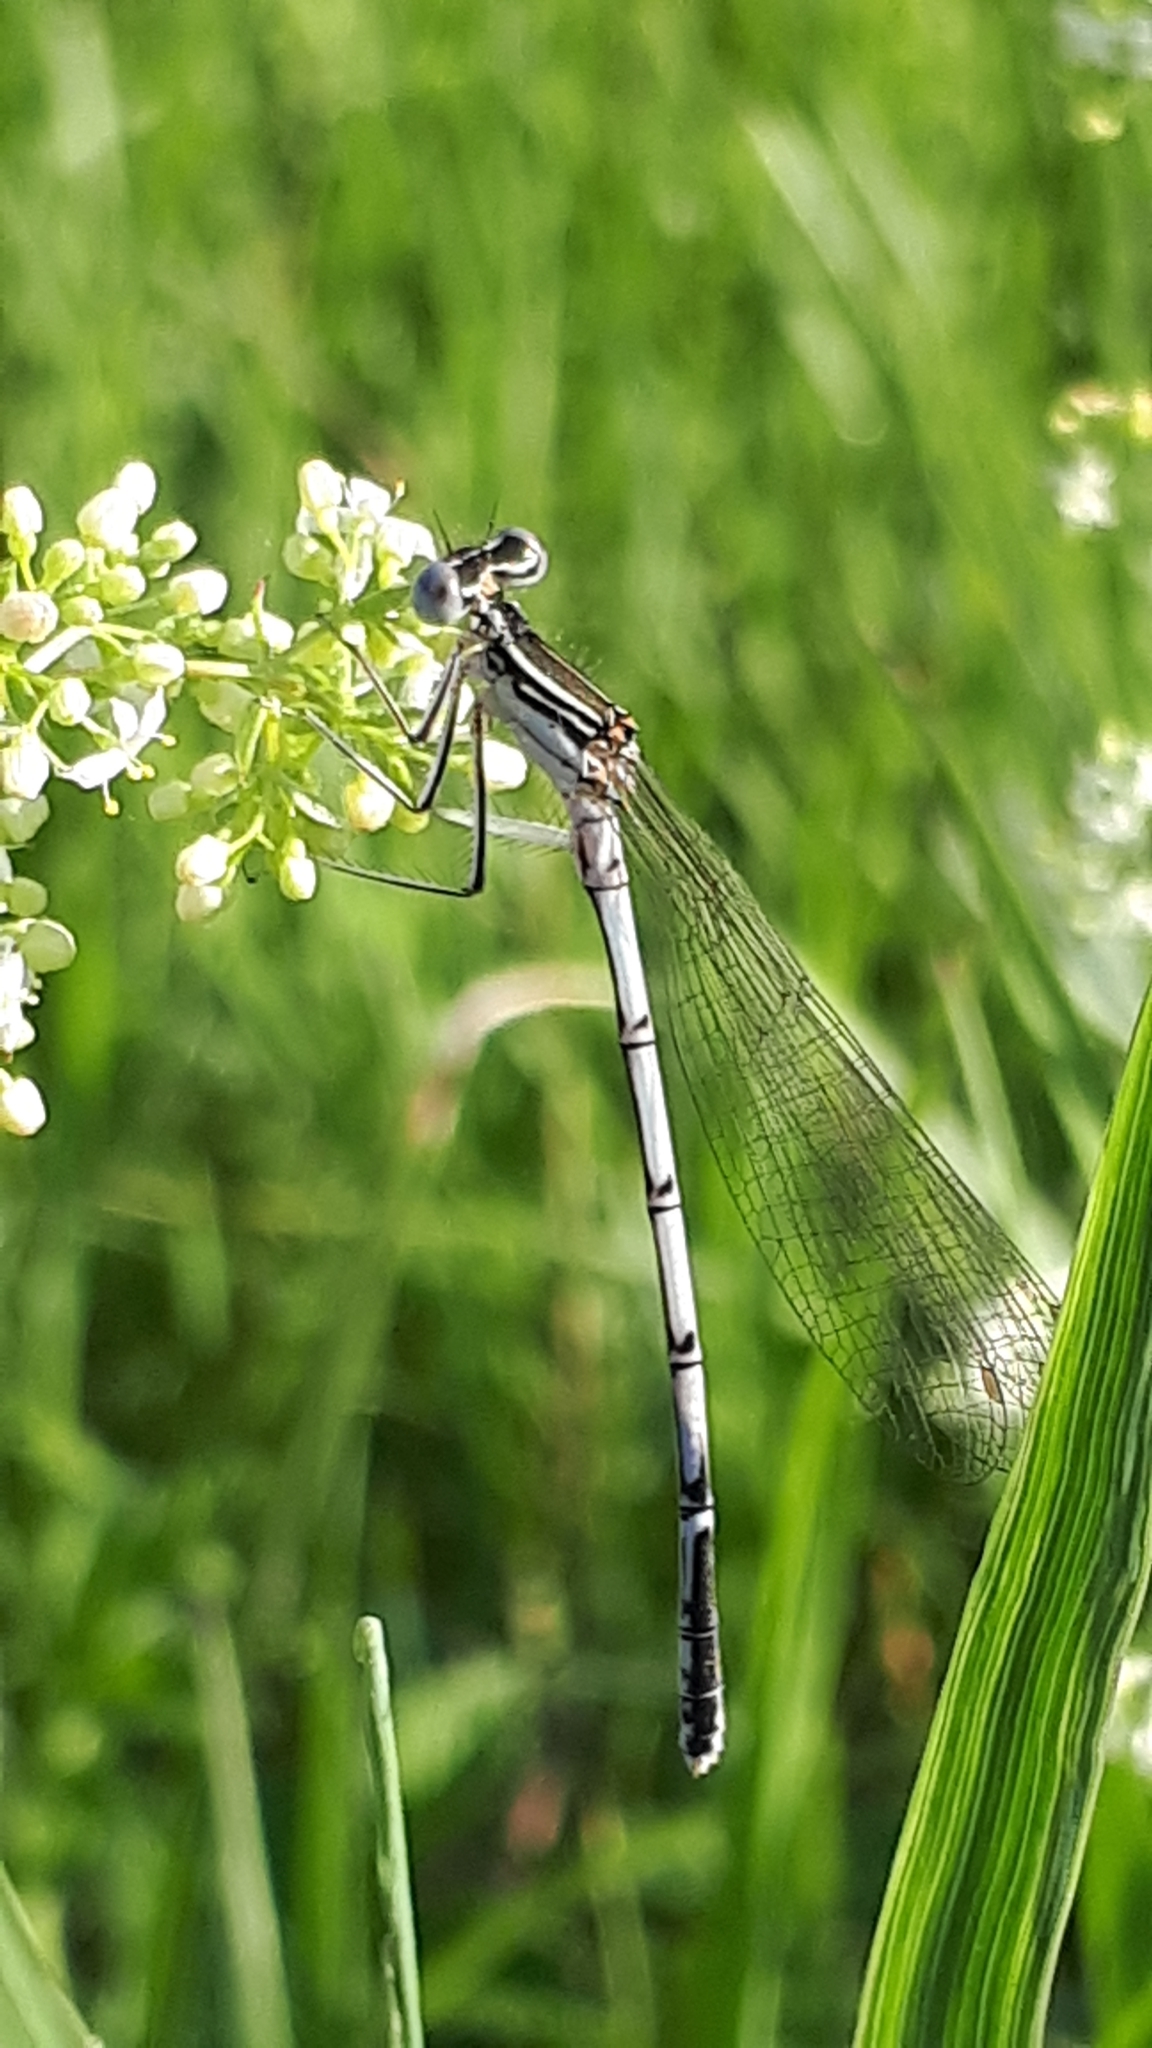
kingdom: Animalia
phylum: Arthropoda
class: Insecta
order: Odonata
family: Platycnemididae
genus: Platycnemis
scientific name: Platycnemis pennipes
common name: White-legged damselfly
